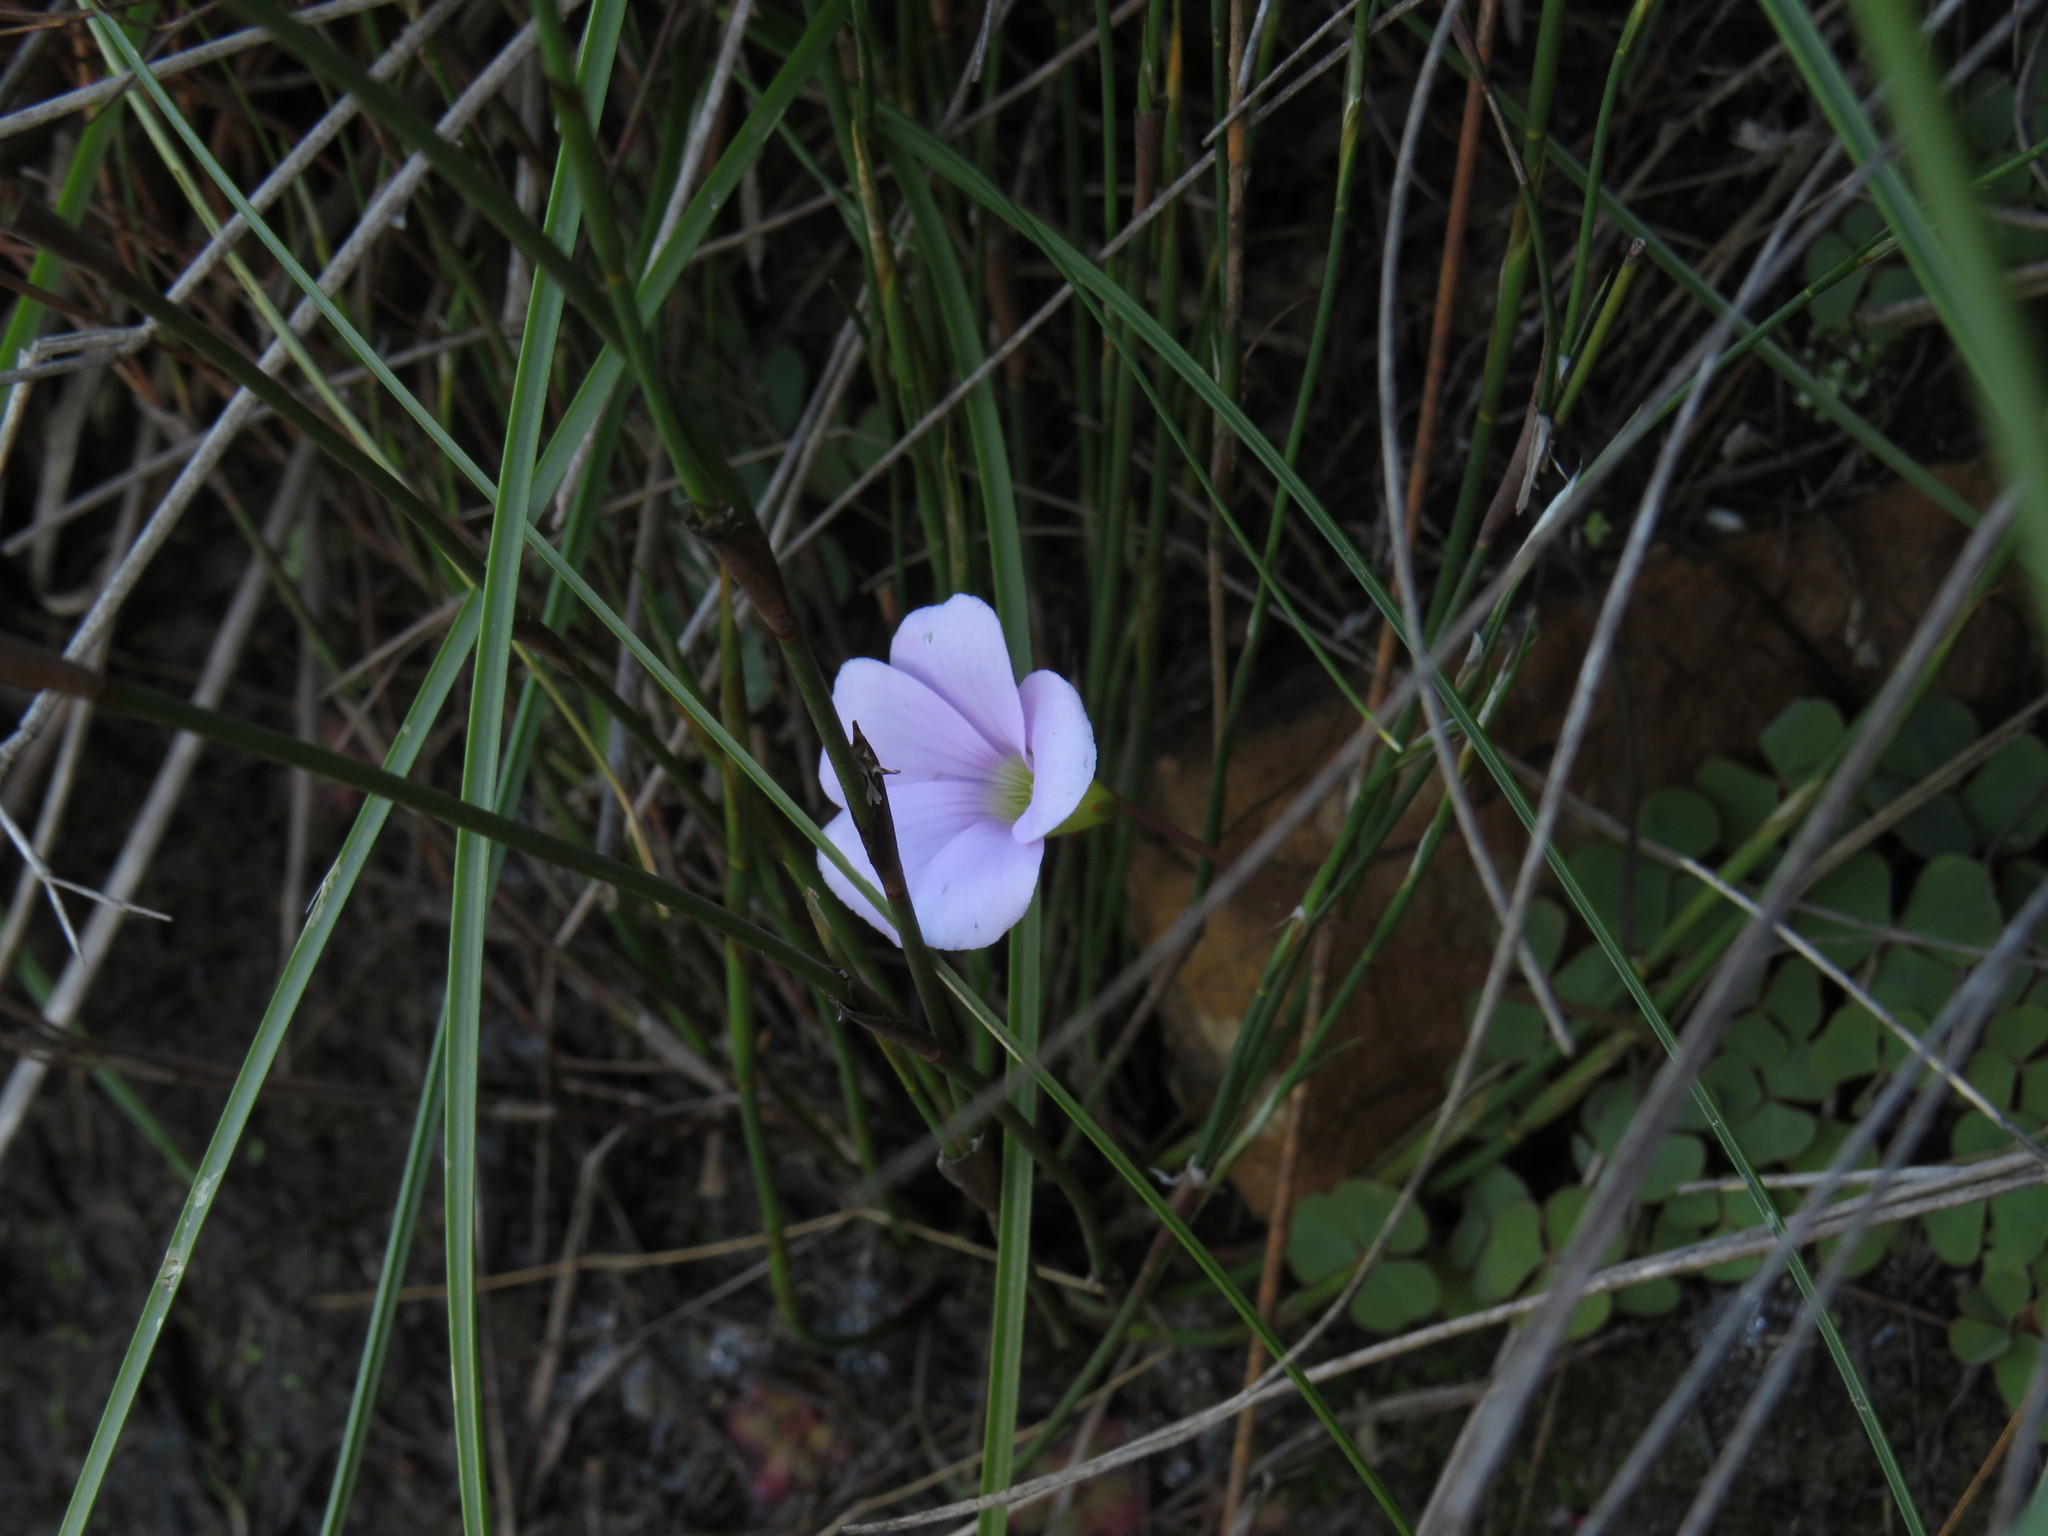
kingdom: Plantae
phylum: Tracheophyta
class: Magnoliopsida
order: Oxalidales
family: Oxalidaceae
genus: Oxalis
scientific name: Oxalis commutata
